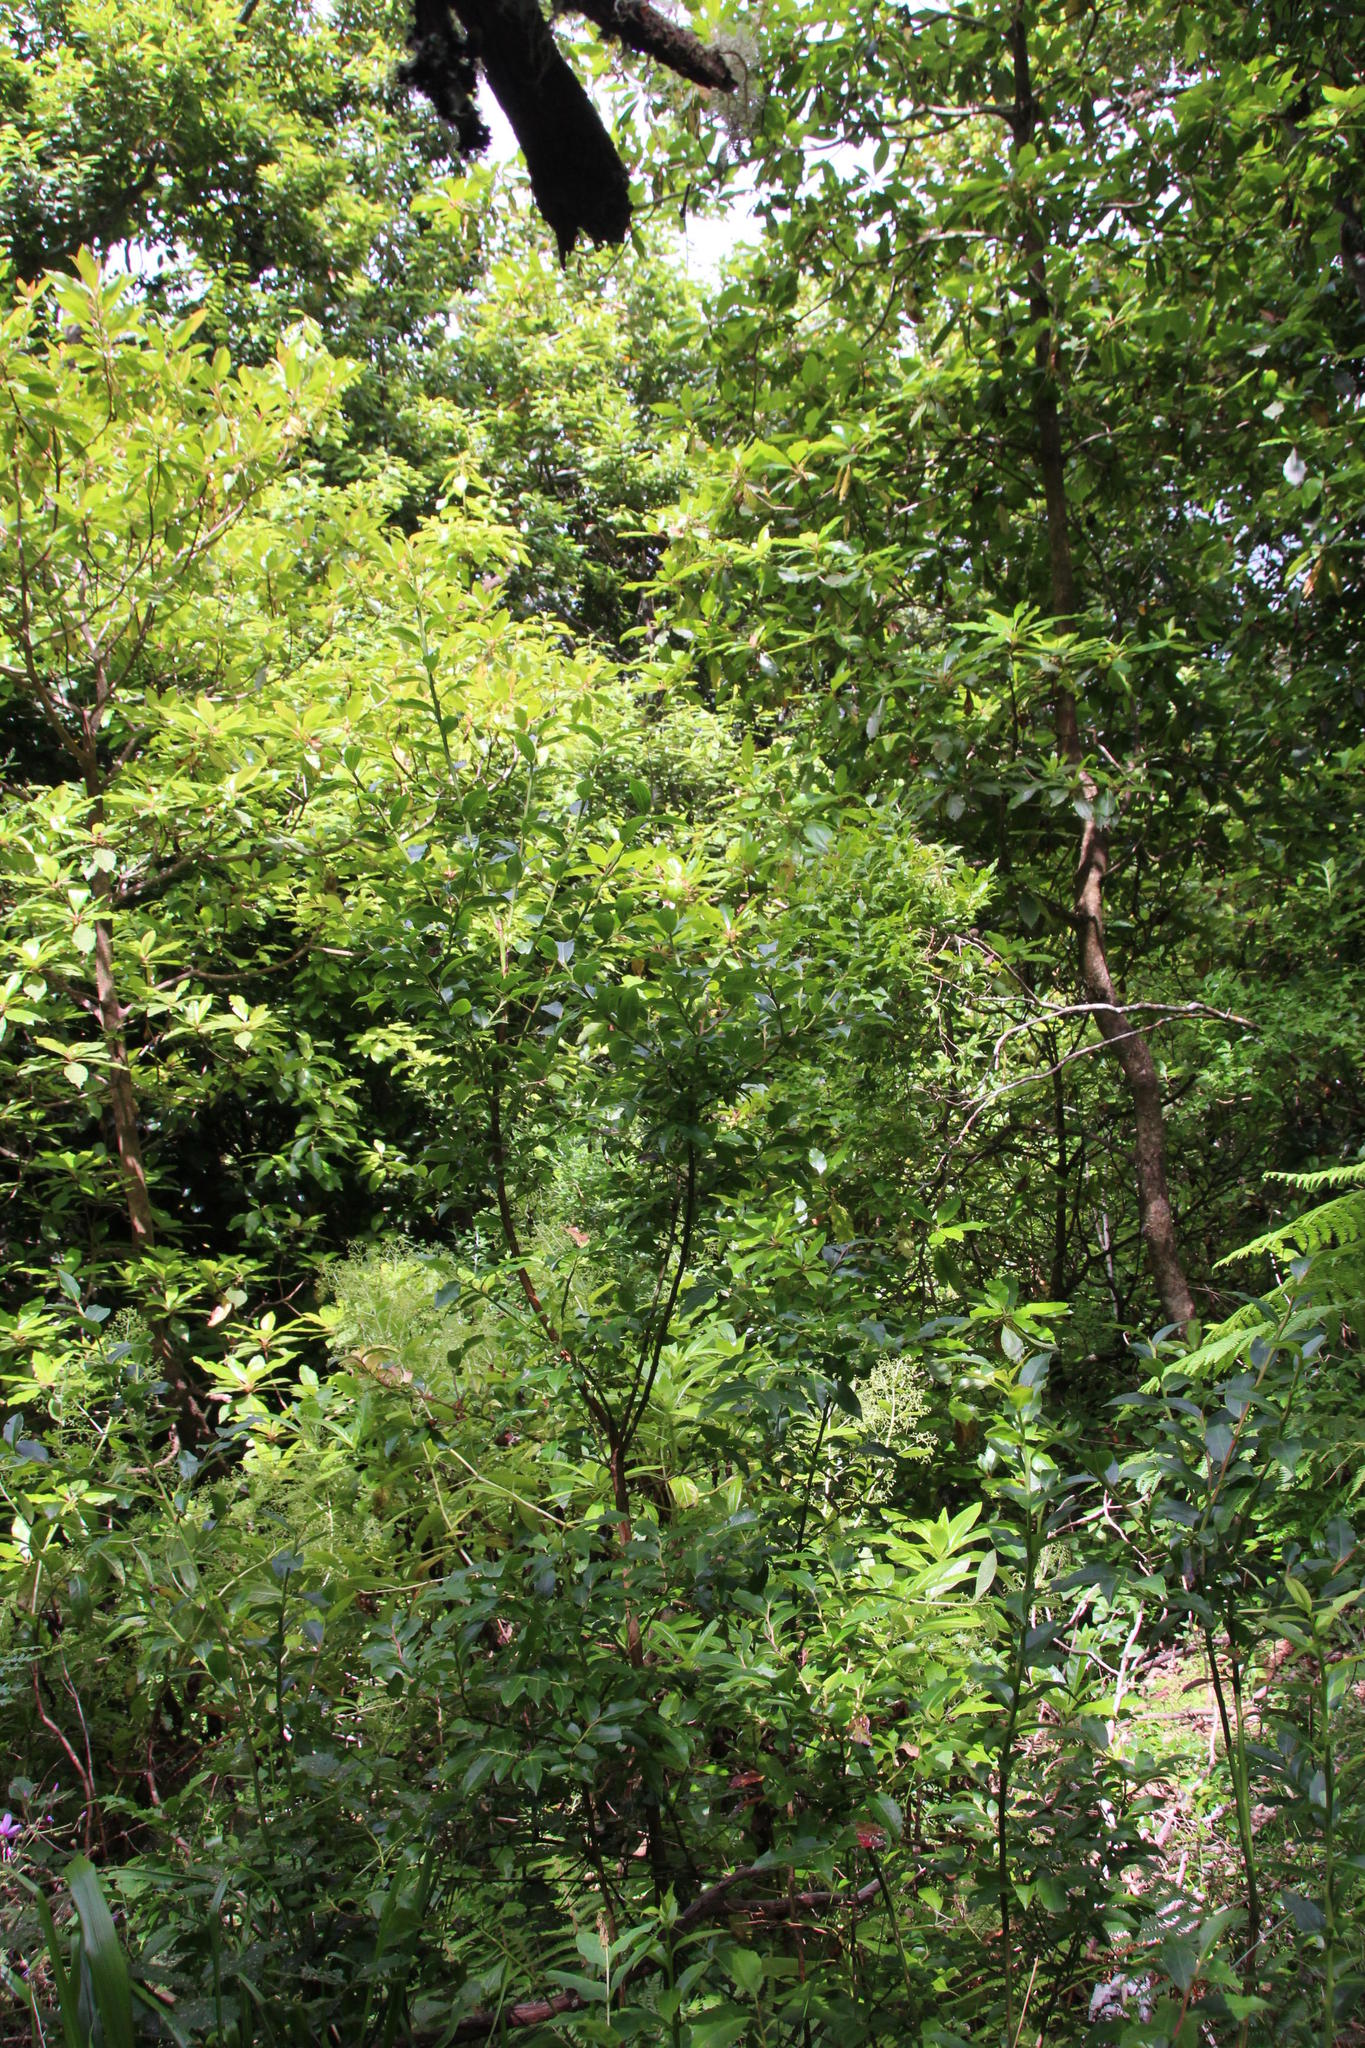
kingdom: Plantae
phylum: Tracheophyta
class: Magnoliopsida
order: Ericales
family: Ericaceae
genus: Vaccinium
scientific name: Vaccinium padifolium
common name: Madeiran blueberry
